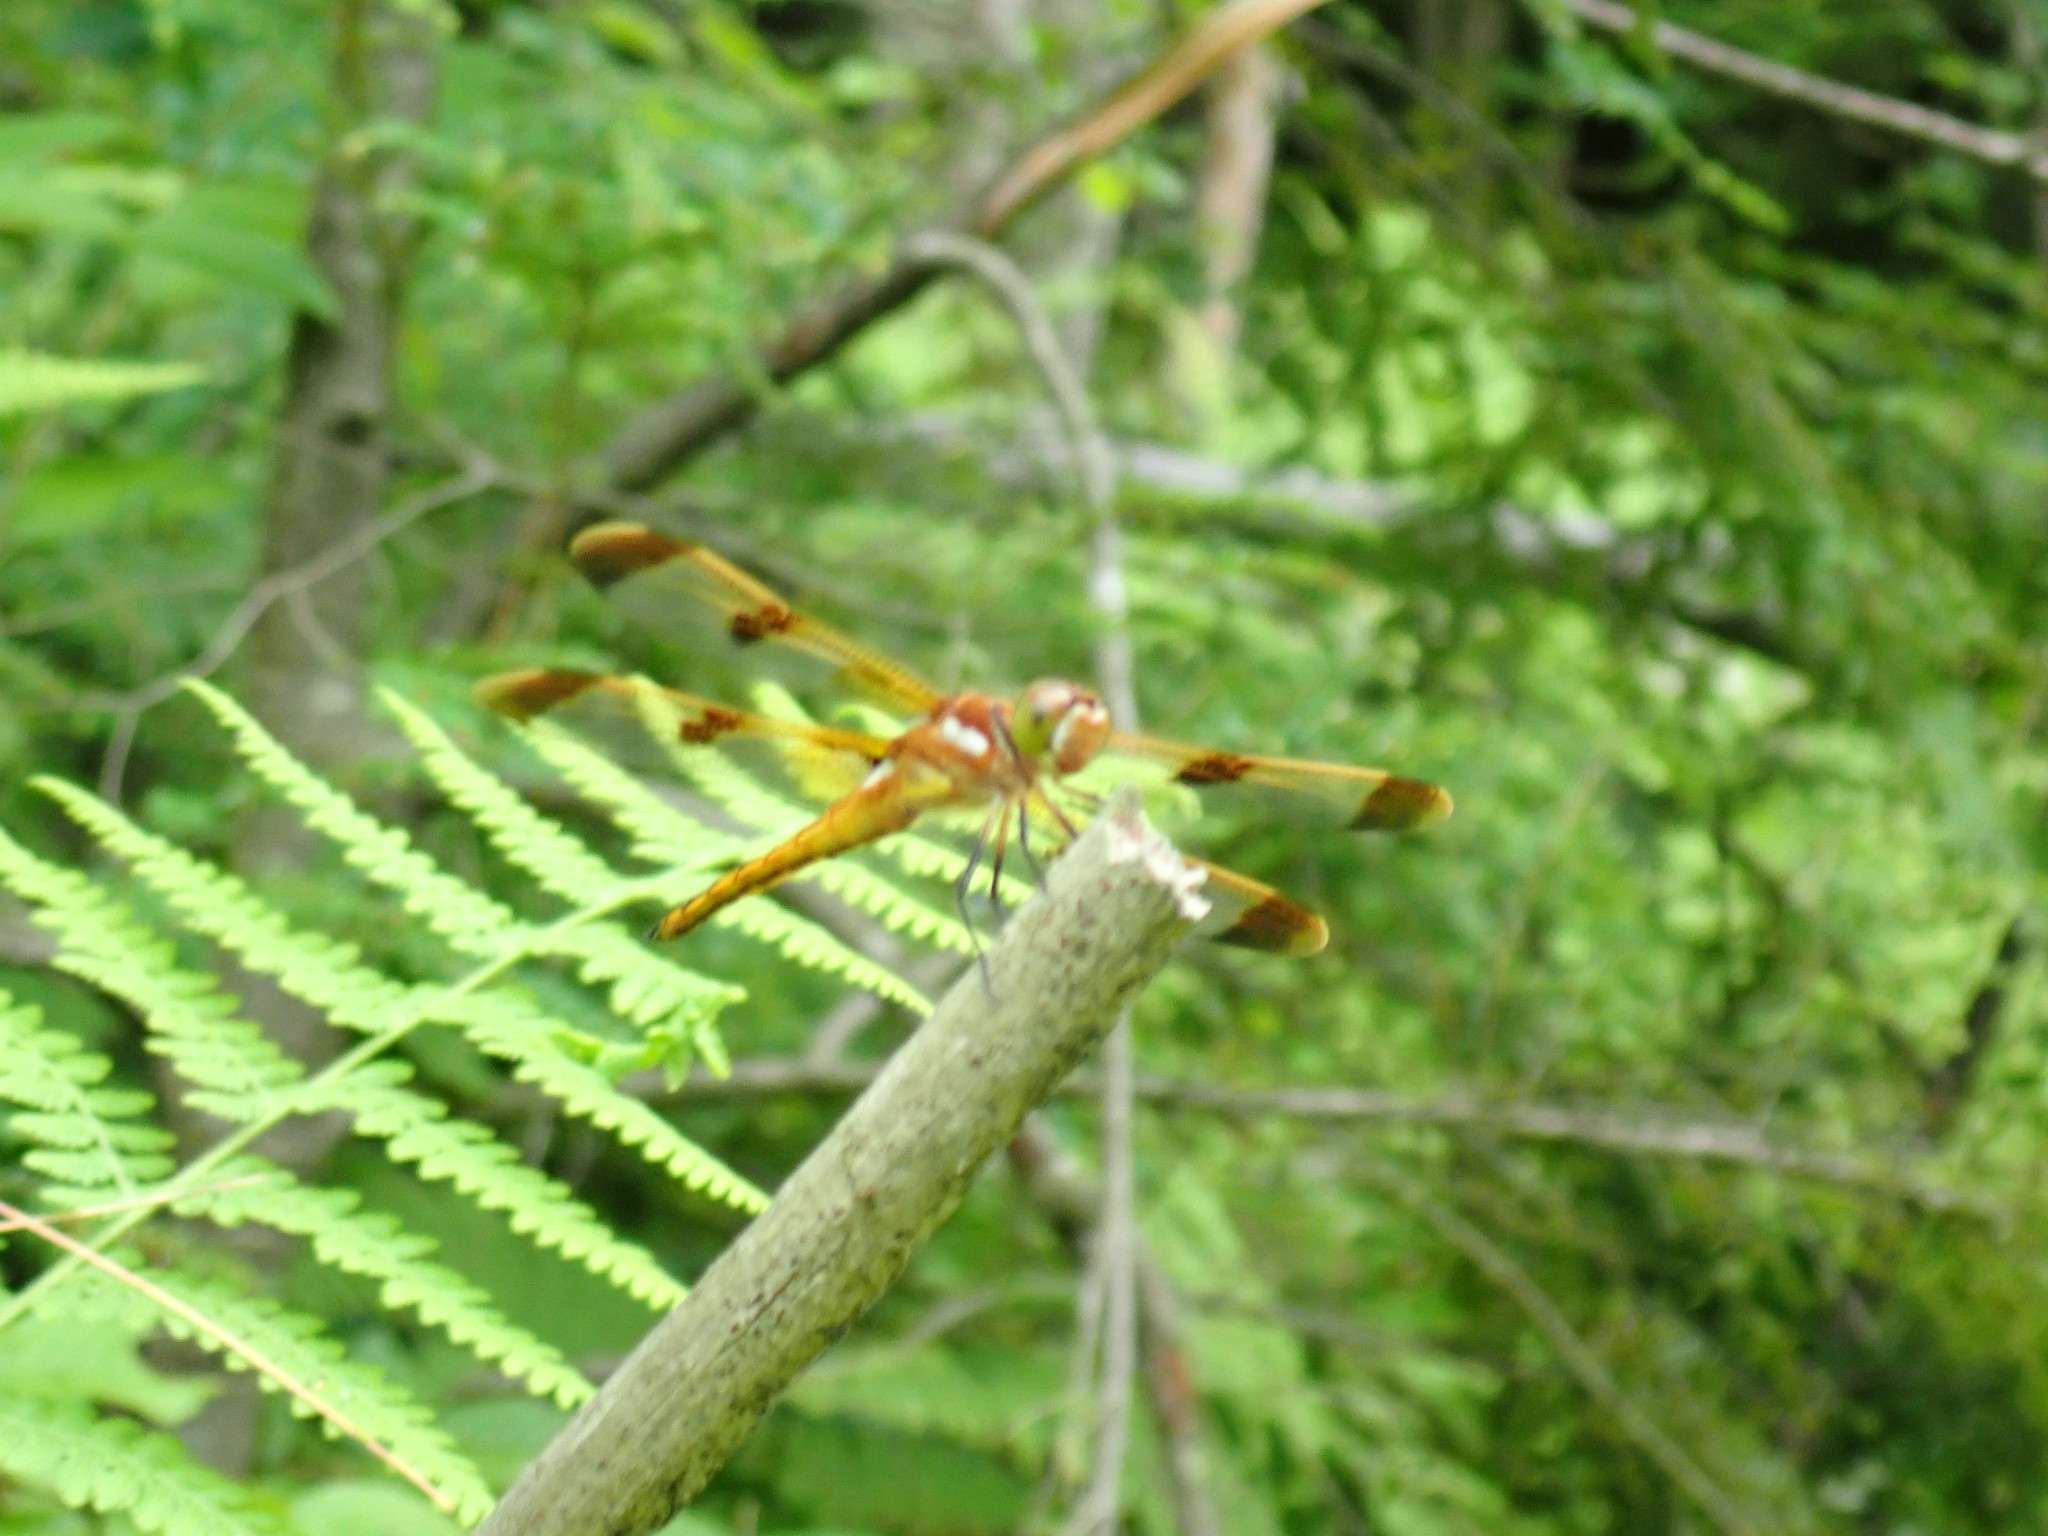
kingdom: Animalia
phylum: Arthropoda
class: Insecta
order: Odonata
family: Libellulidae
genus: Libellula
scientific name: Libellula semifasciata
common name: Painted skimmer
